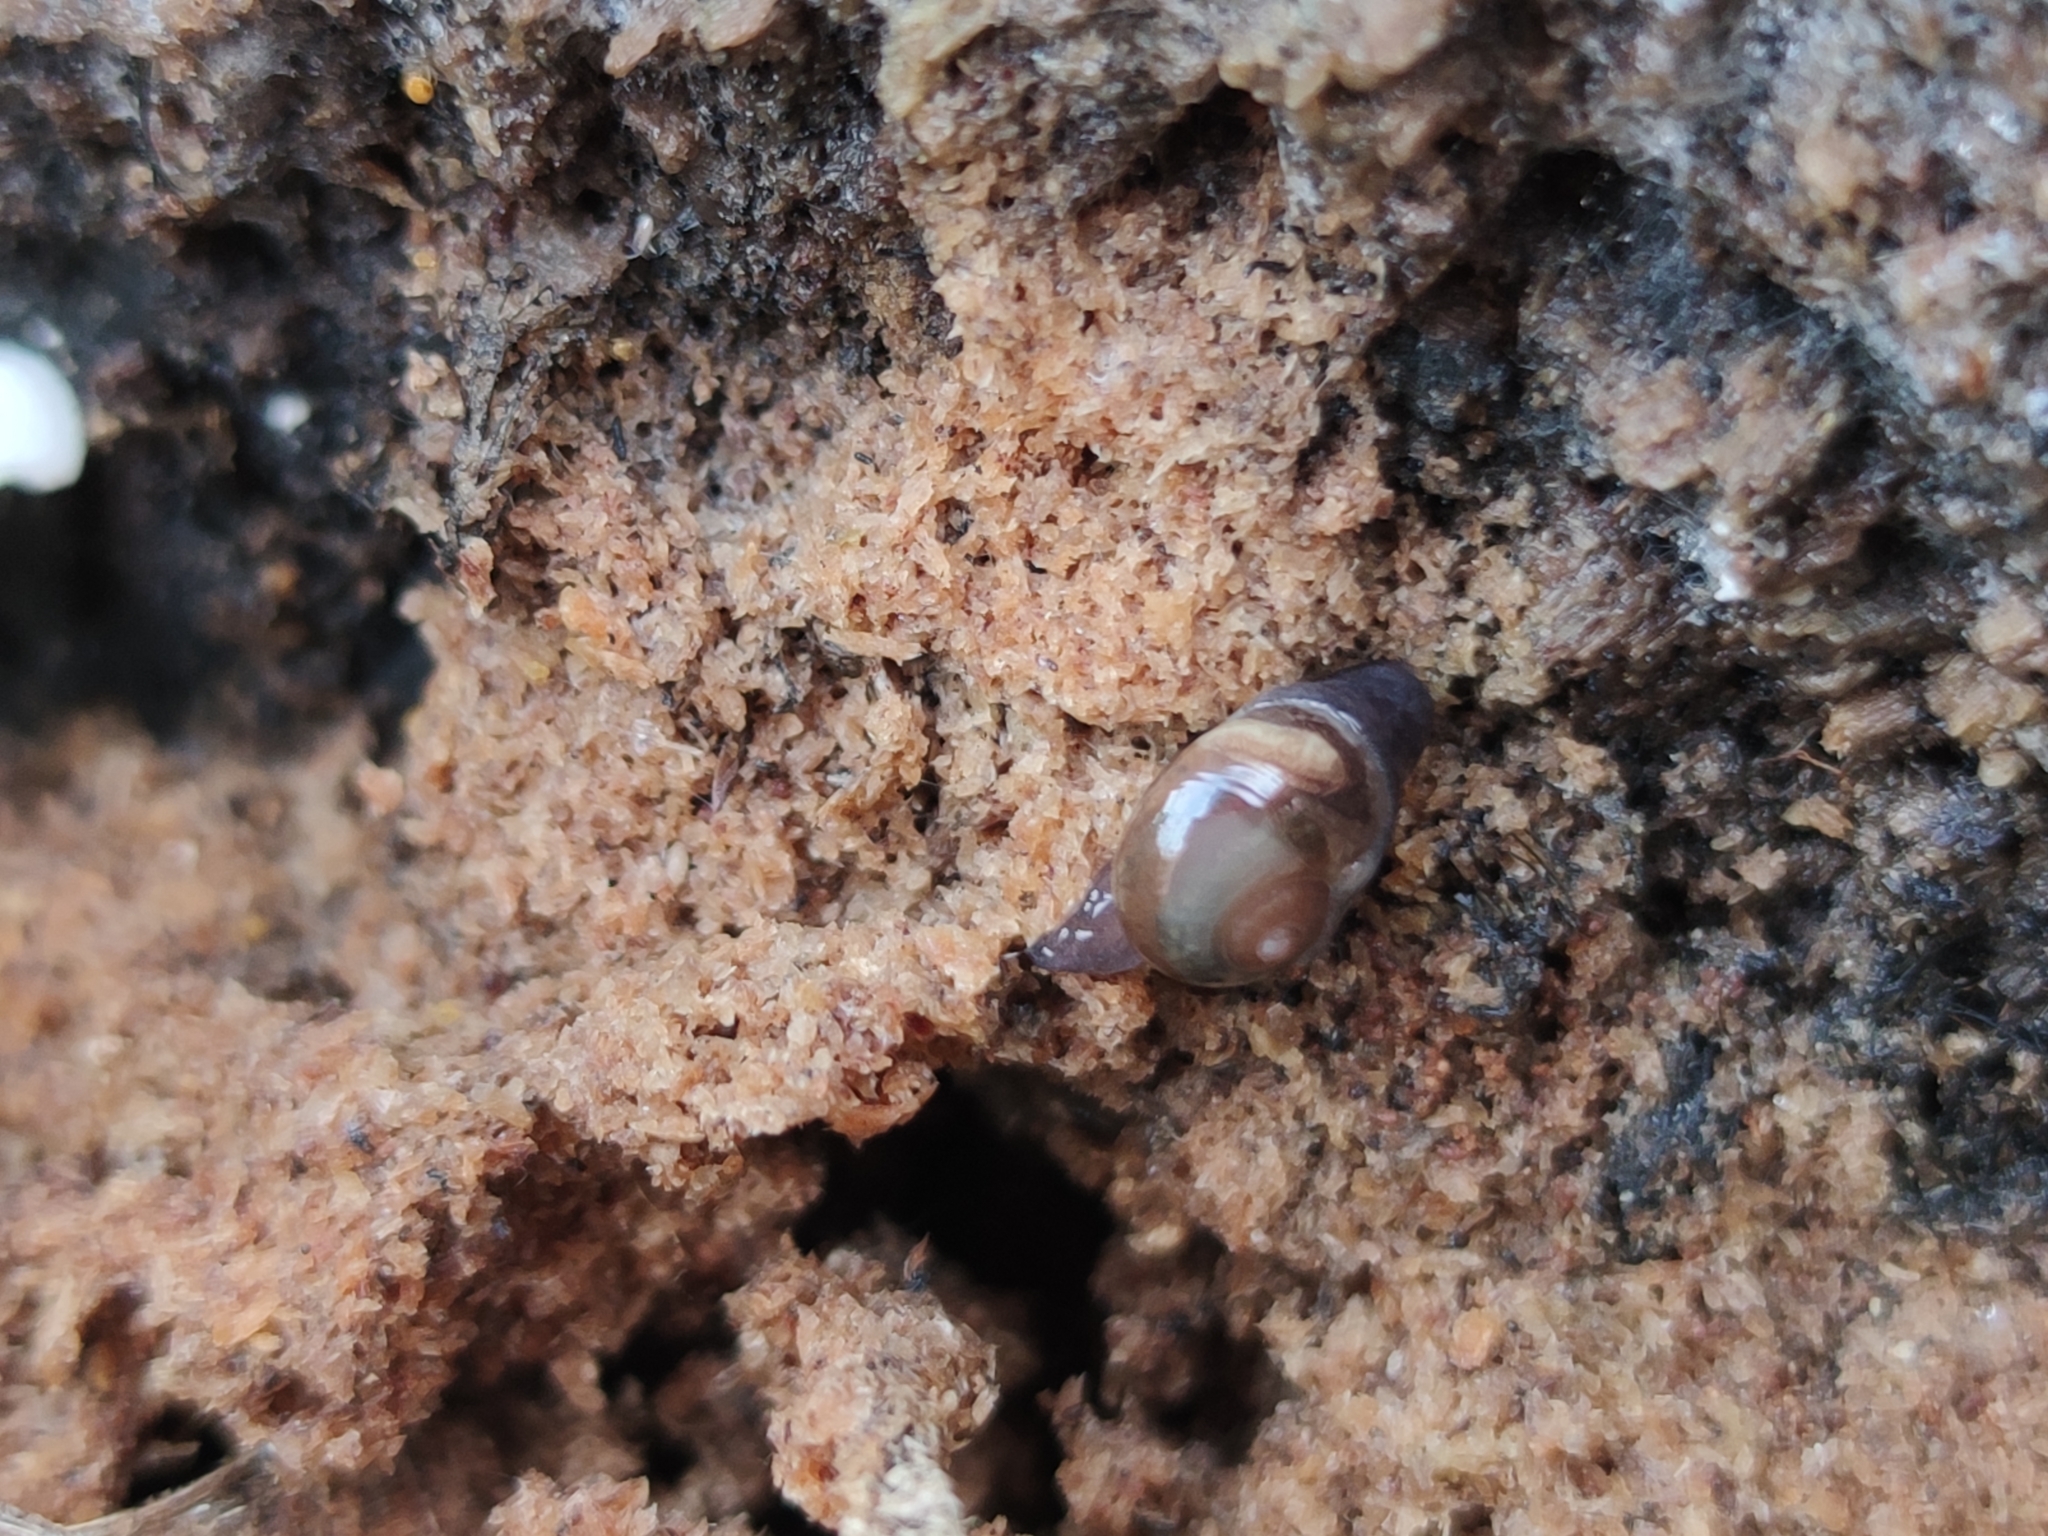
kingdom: Animalia
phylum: Mollusca
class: Gastropoda
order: Stylommatophora
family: Vitrinidae
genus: Vitrina
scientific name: Vitrina pellucida
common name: Pellucid glass snail
